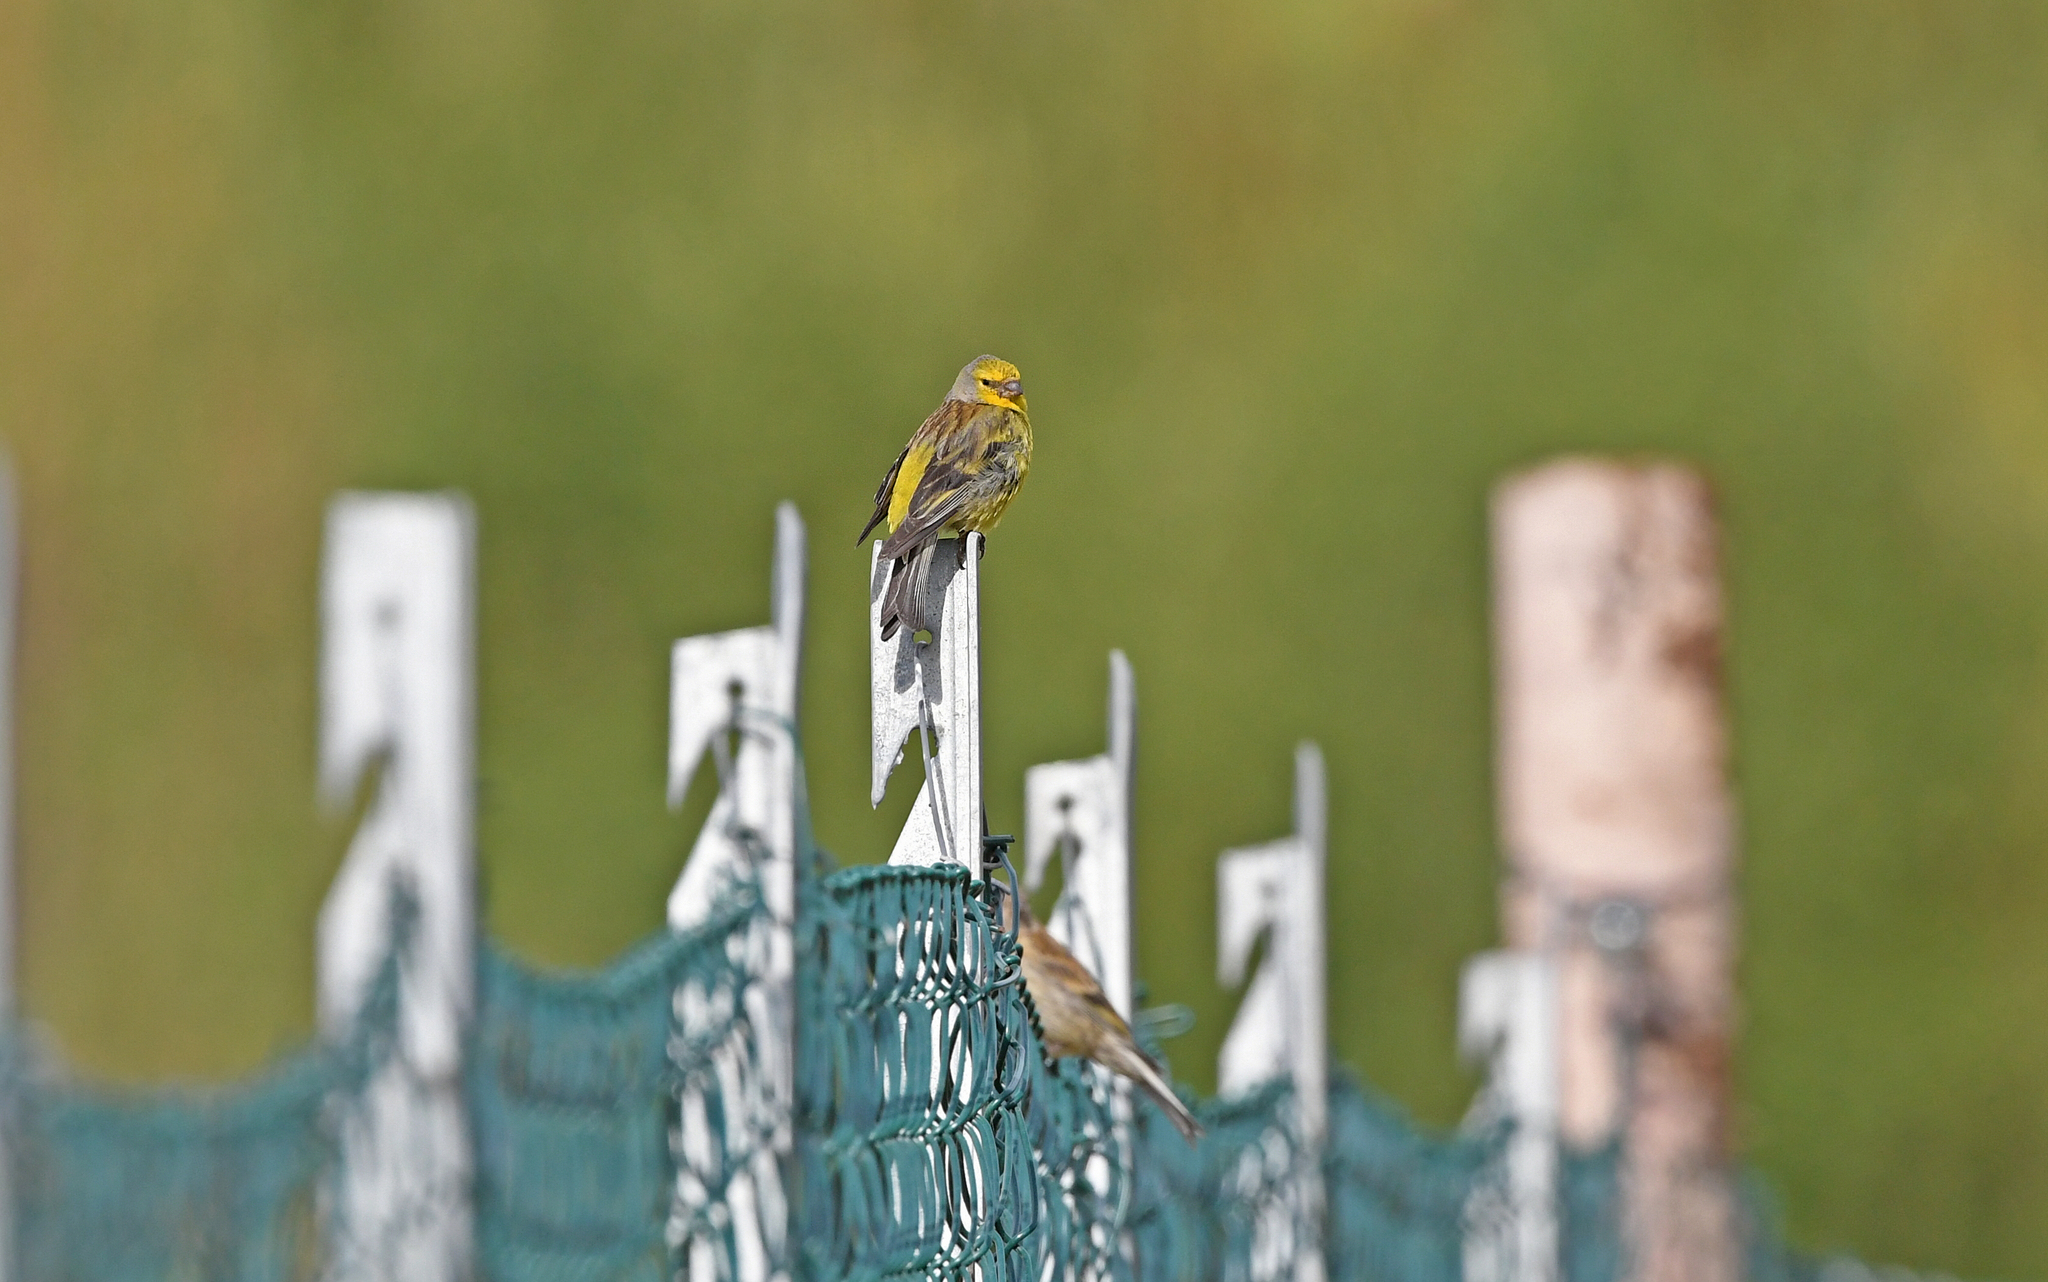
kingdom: Animalia
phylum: Chordata
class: Aves
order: Passeriformes
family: Fringillidae
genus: Carduelis
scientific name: Carduelis corsicana
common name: Corsican finch
